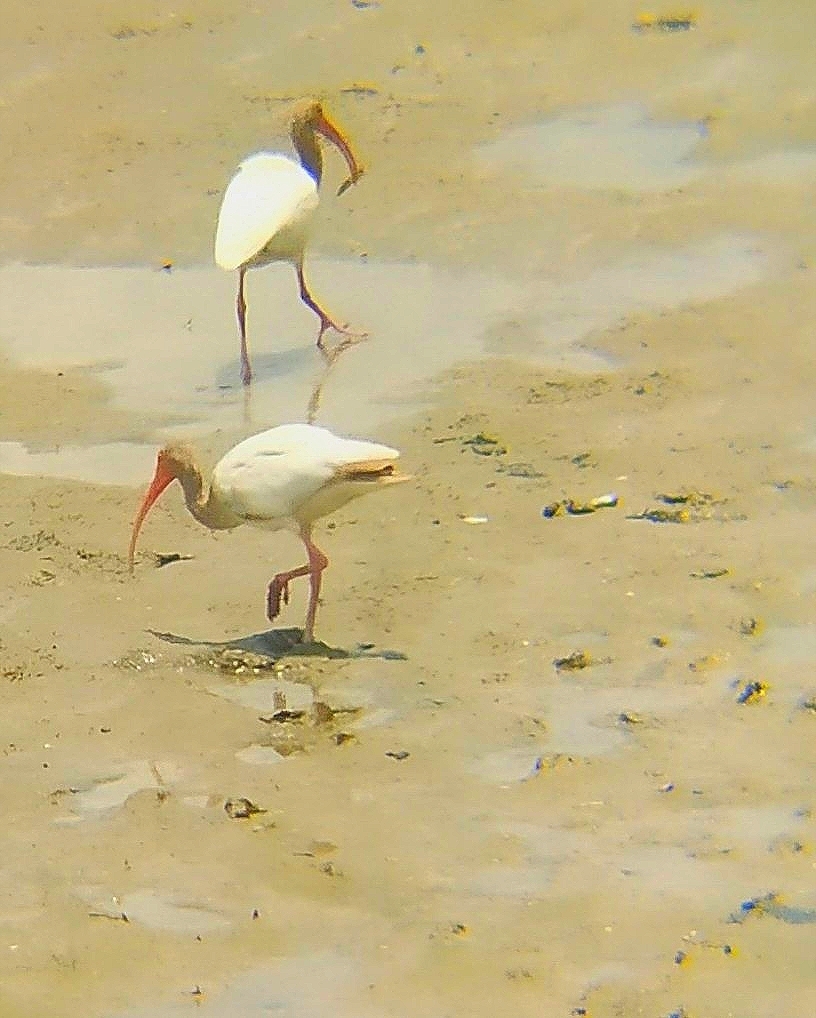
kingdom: Animalia
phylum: Chordata
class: Aves
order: Pelecaniformes
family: Threskiornithidae
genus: Eudocimus
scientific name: Eudocimus albus
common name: White ibis
